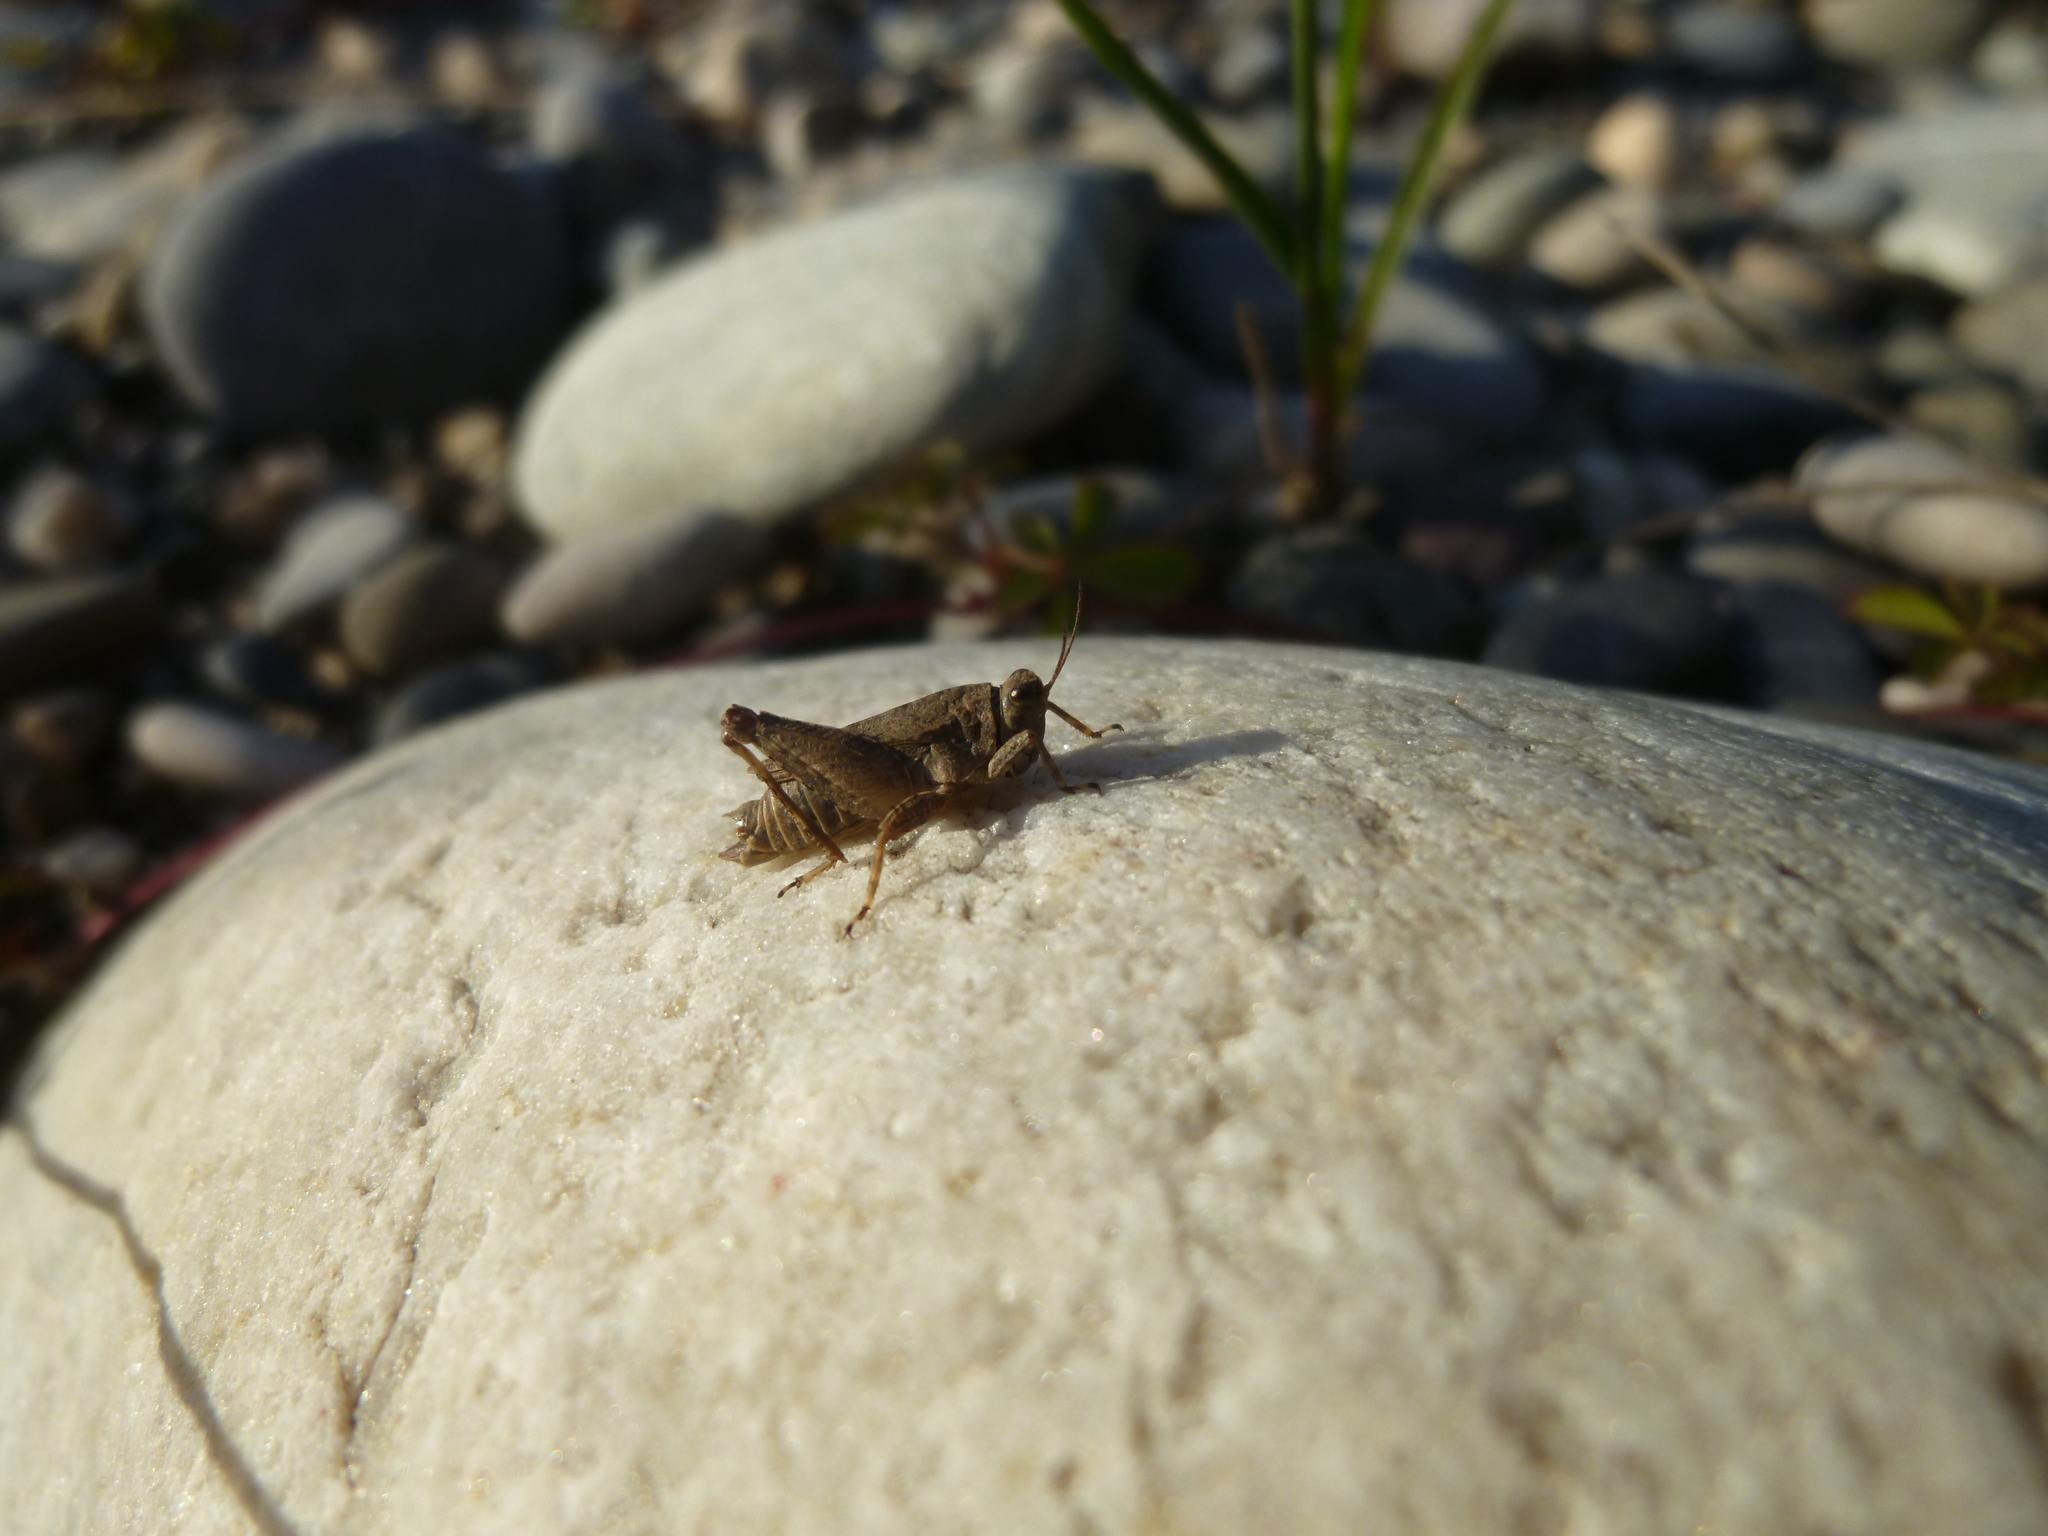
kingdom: Animalia
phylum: Arthropoda
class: Insecta
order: Orthoptera
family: Tetrigidae
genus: Tetrix
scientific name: Tetrix tenuicornis
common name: Long-horned groundhopper
